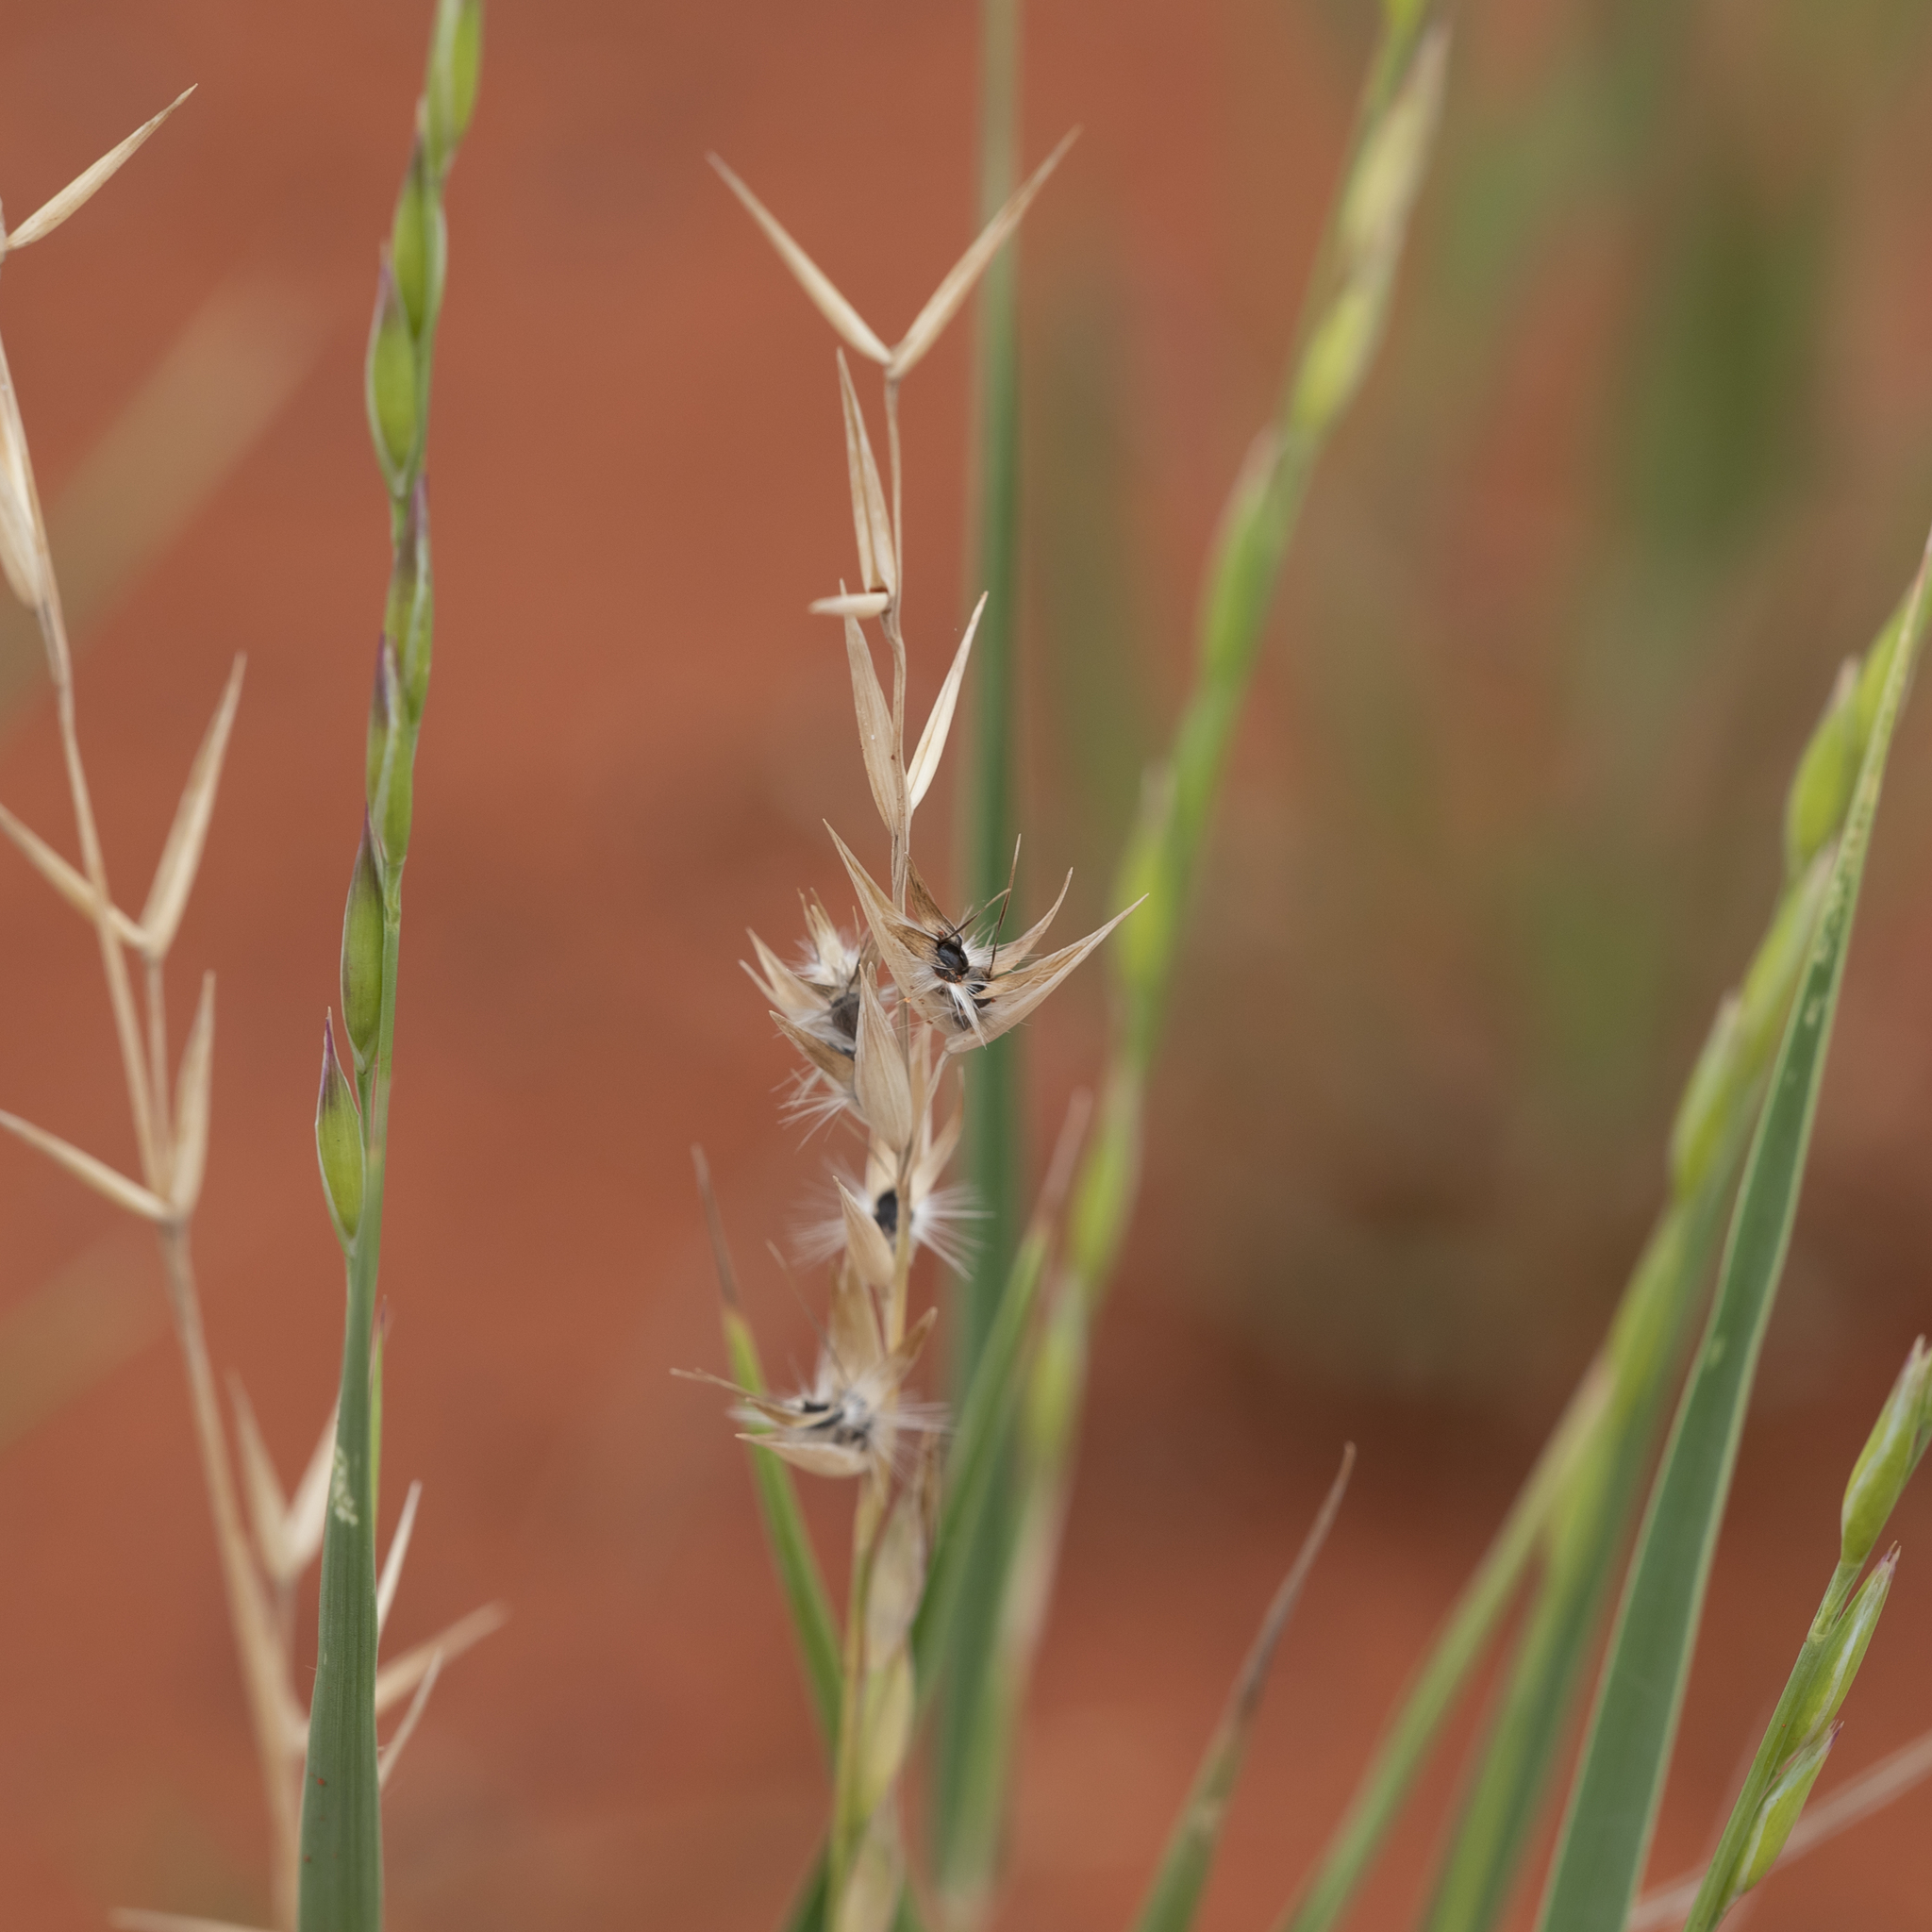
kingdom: Plantae
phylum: Tracheophyta
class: Liliopsida
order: Poales
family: Poaceae
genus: Monachather
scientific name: Monachather paradoxus
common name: Bandicoot grass
